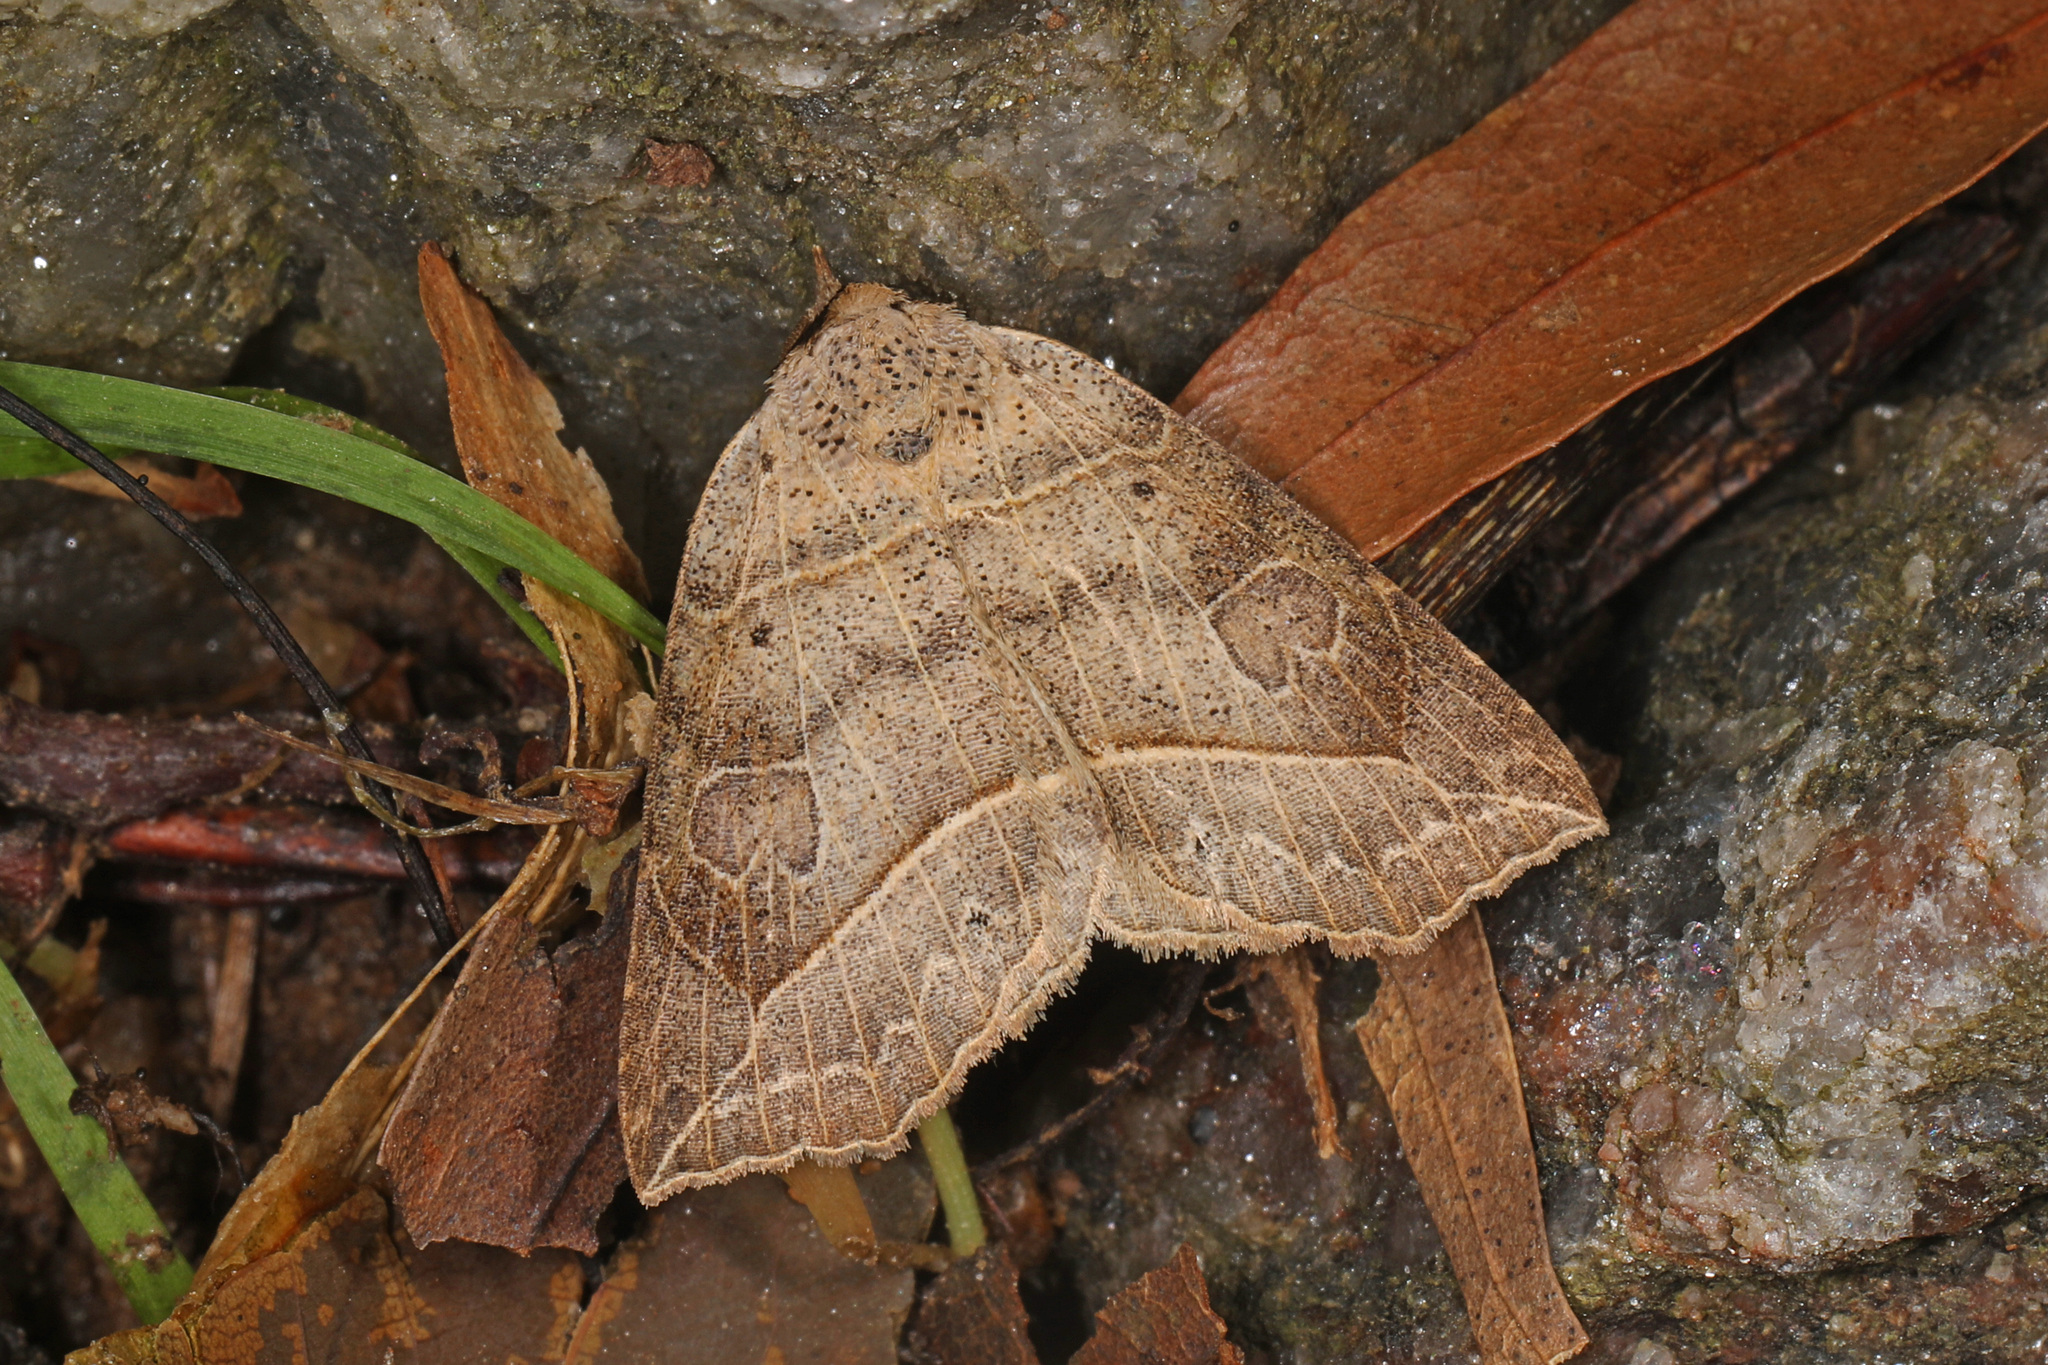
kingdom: Animalia
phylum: Arthropoda
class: Insecta
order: Lepidoptera
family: Erebidae
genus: Isogona
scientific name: Isogona tenuis
